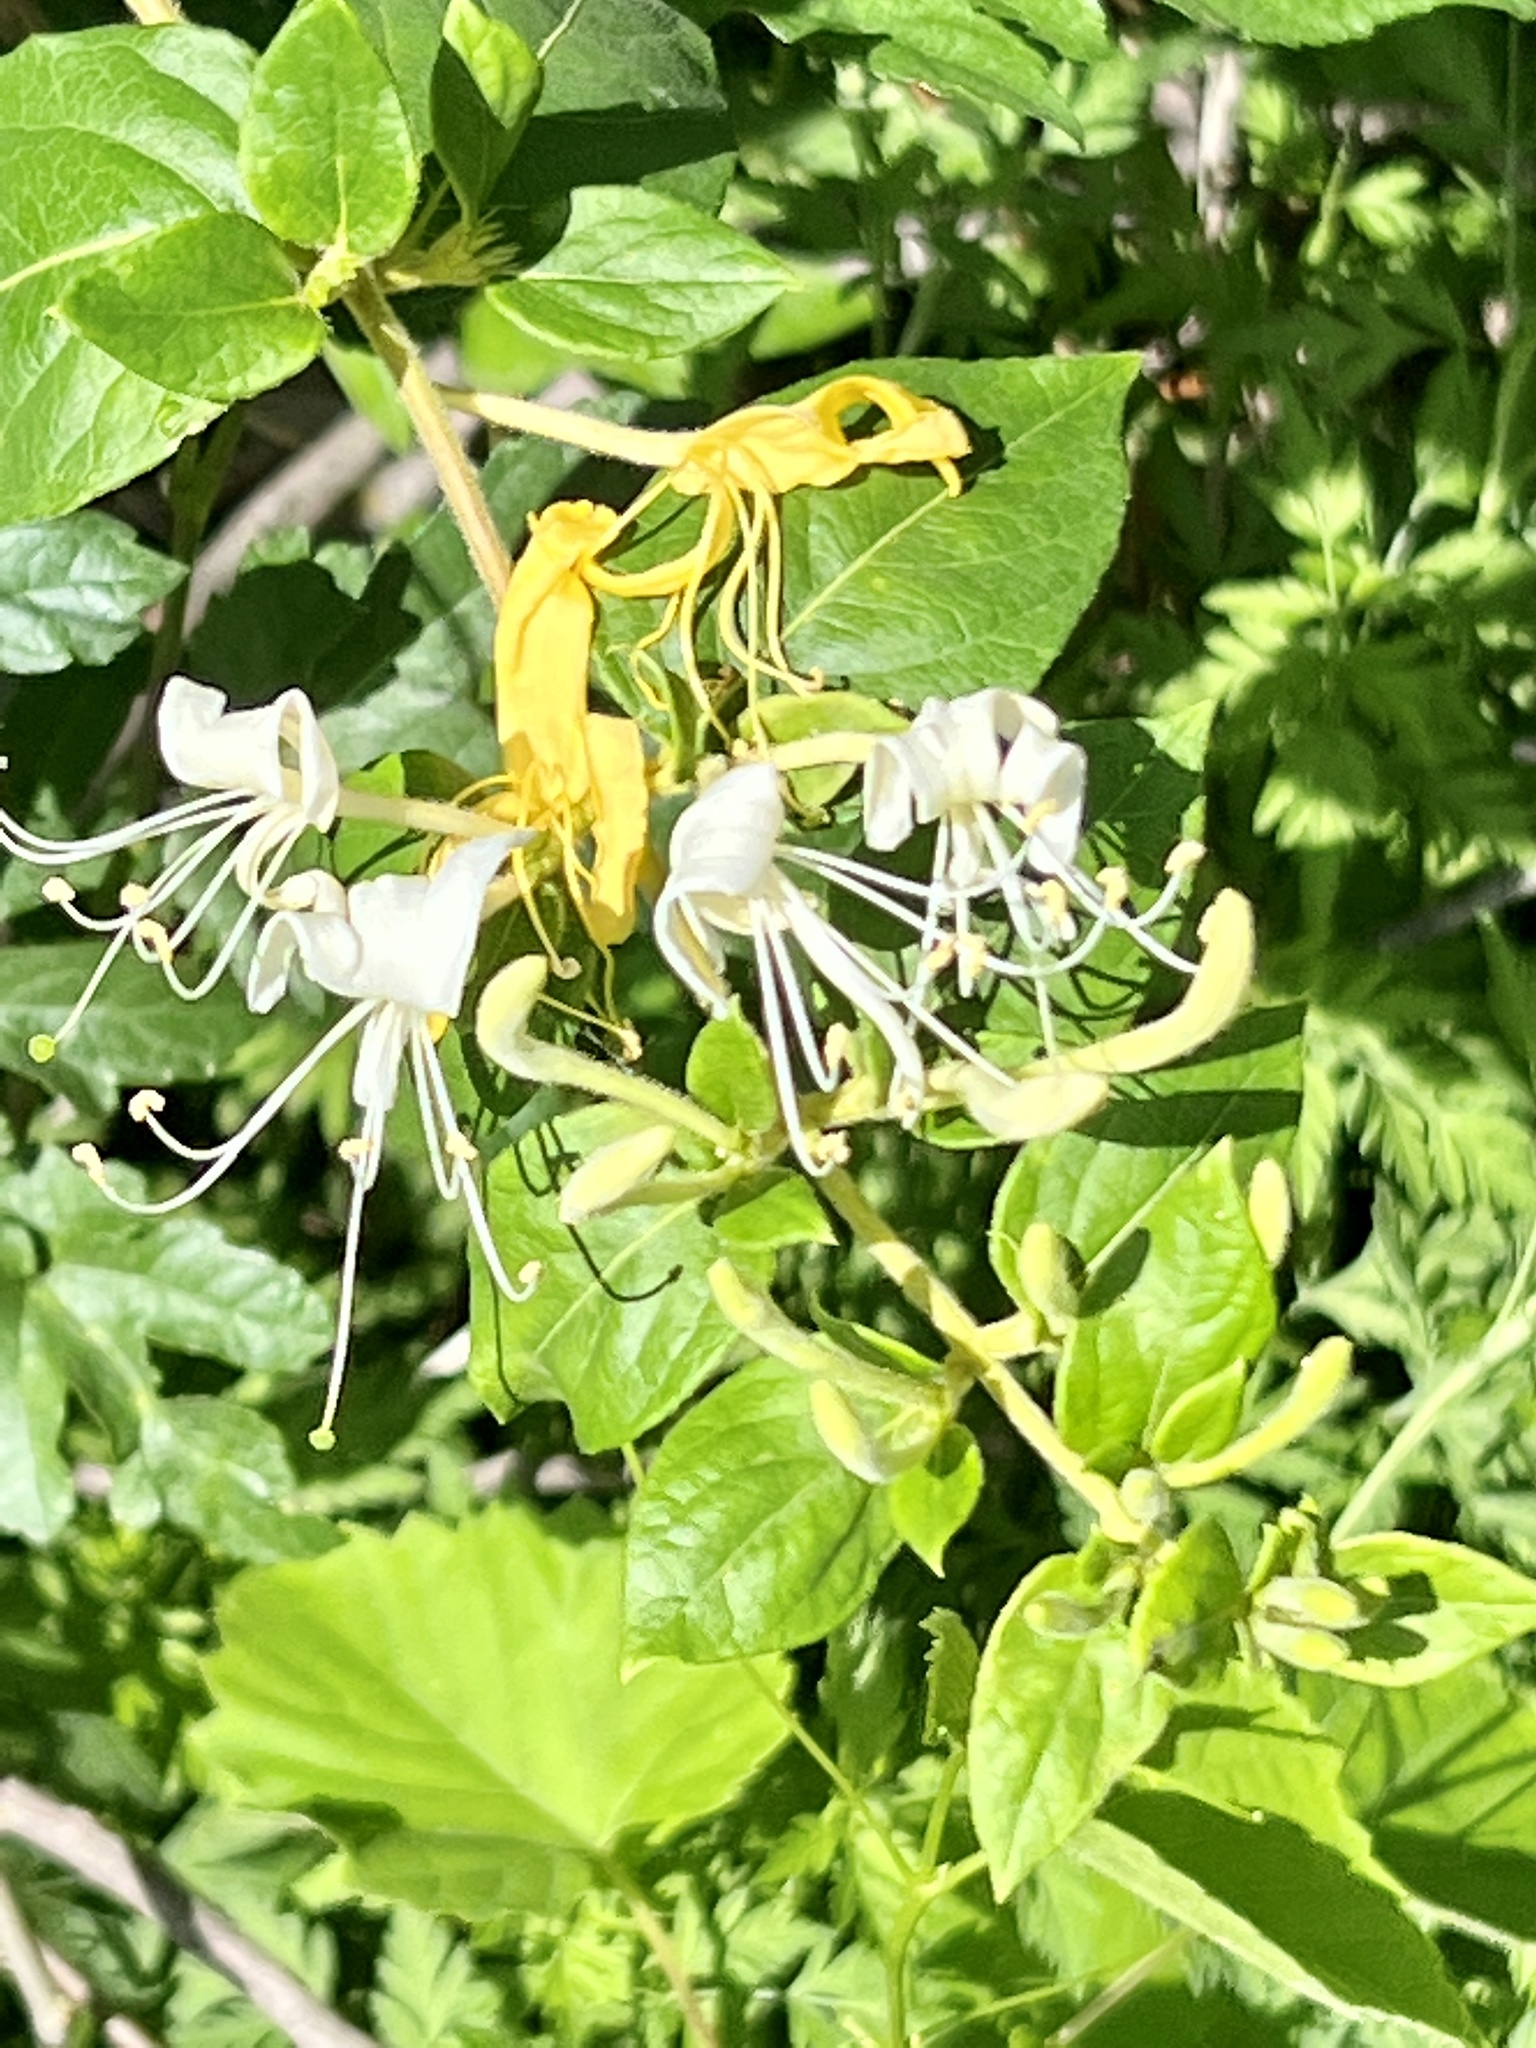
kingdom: Plantae
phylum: Tracheophyta
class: Magnoliopsida
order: Dipsacales
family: Caprifoliaceae
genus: Lonicera
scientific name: Lonicera japonica
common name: Japanese honeysuckle
